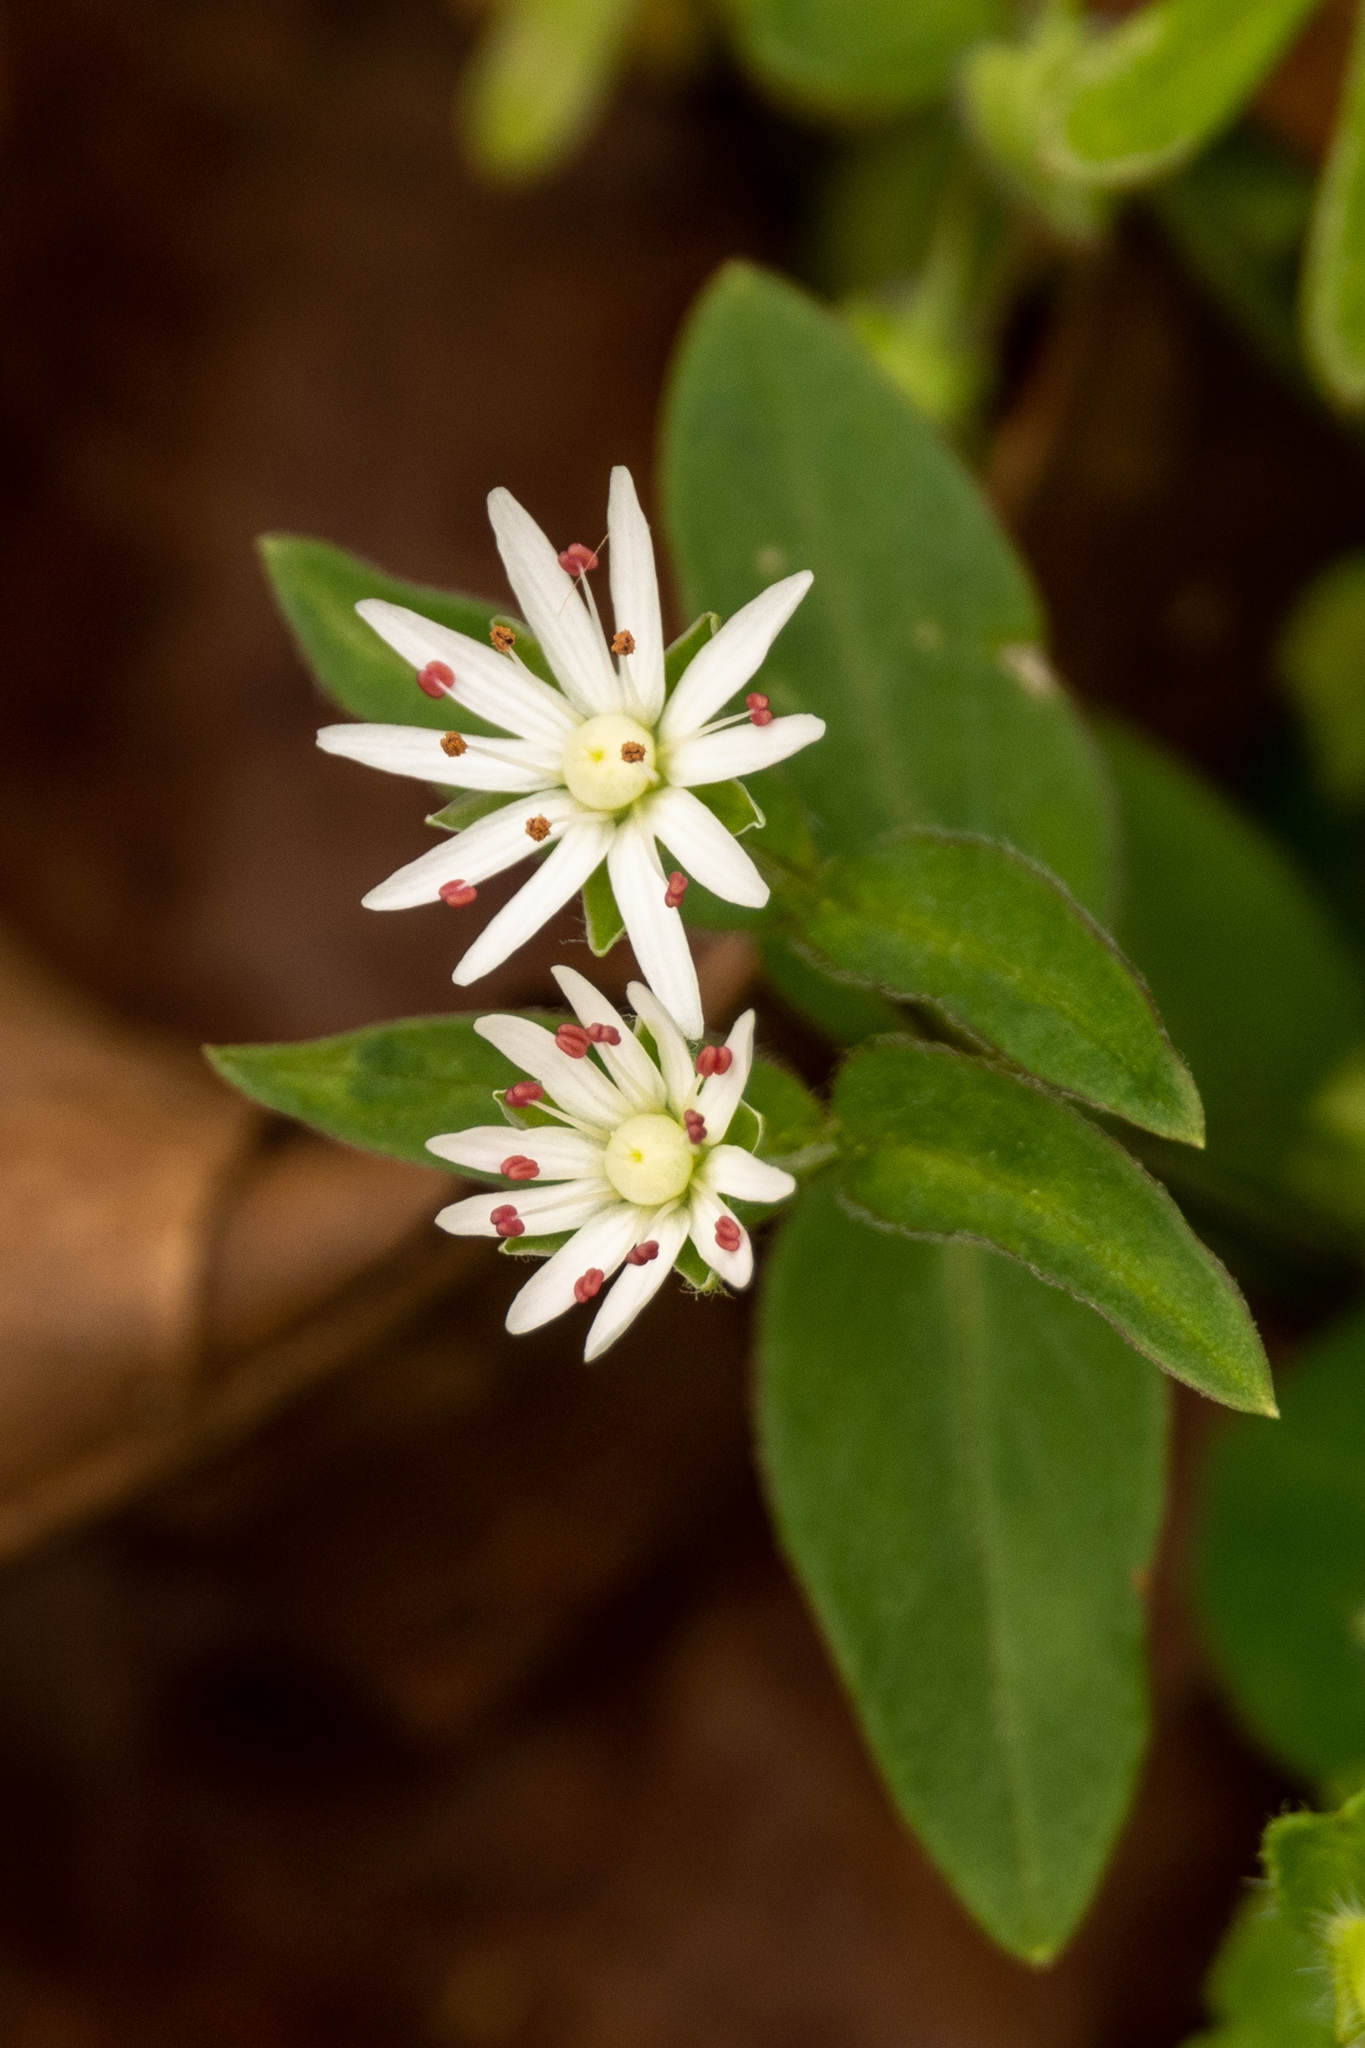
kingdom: Plantae
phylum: Tracheophyta
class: Magnoliopsida
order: Caryophyllales
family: Caryophyllaceae
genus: Stellaria
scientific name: Stellaria pubera
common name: Star chickweed
